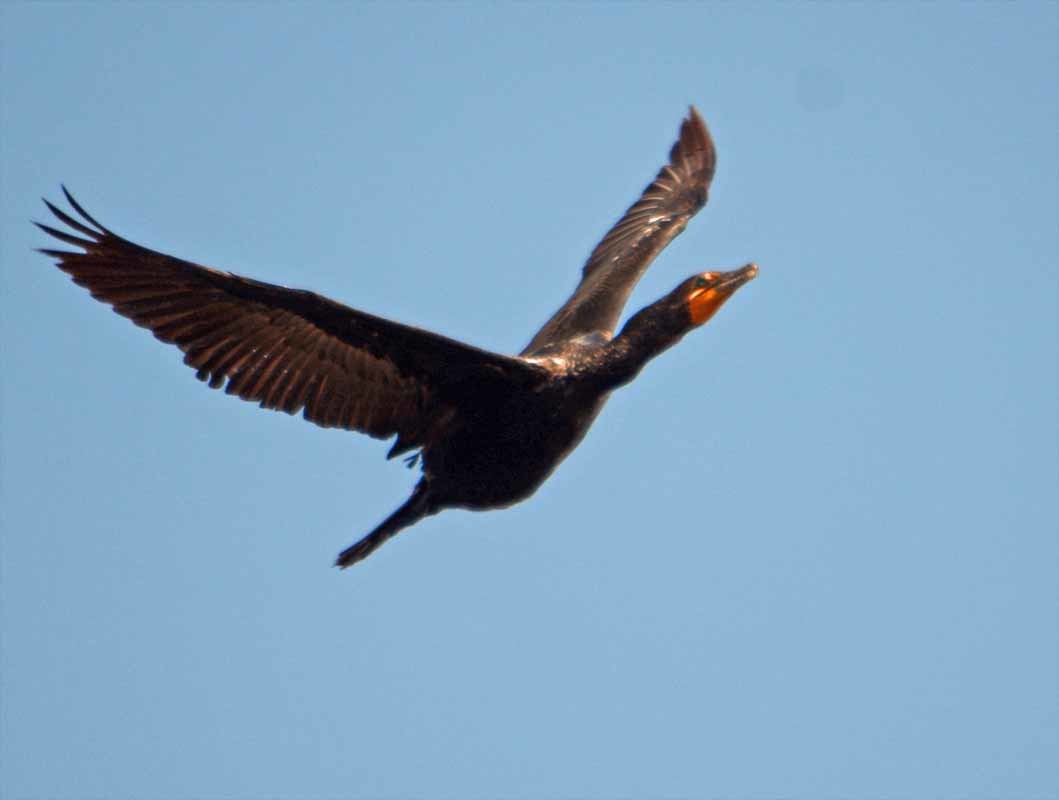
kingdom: Animalia
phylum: Chordata
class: Aves
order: Suliformes
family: Phalacrocoracidae
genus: Phalacrocorax
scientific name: Phalacrocorax auritus
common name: Double-crested cormorant
